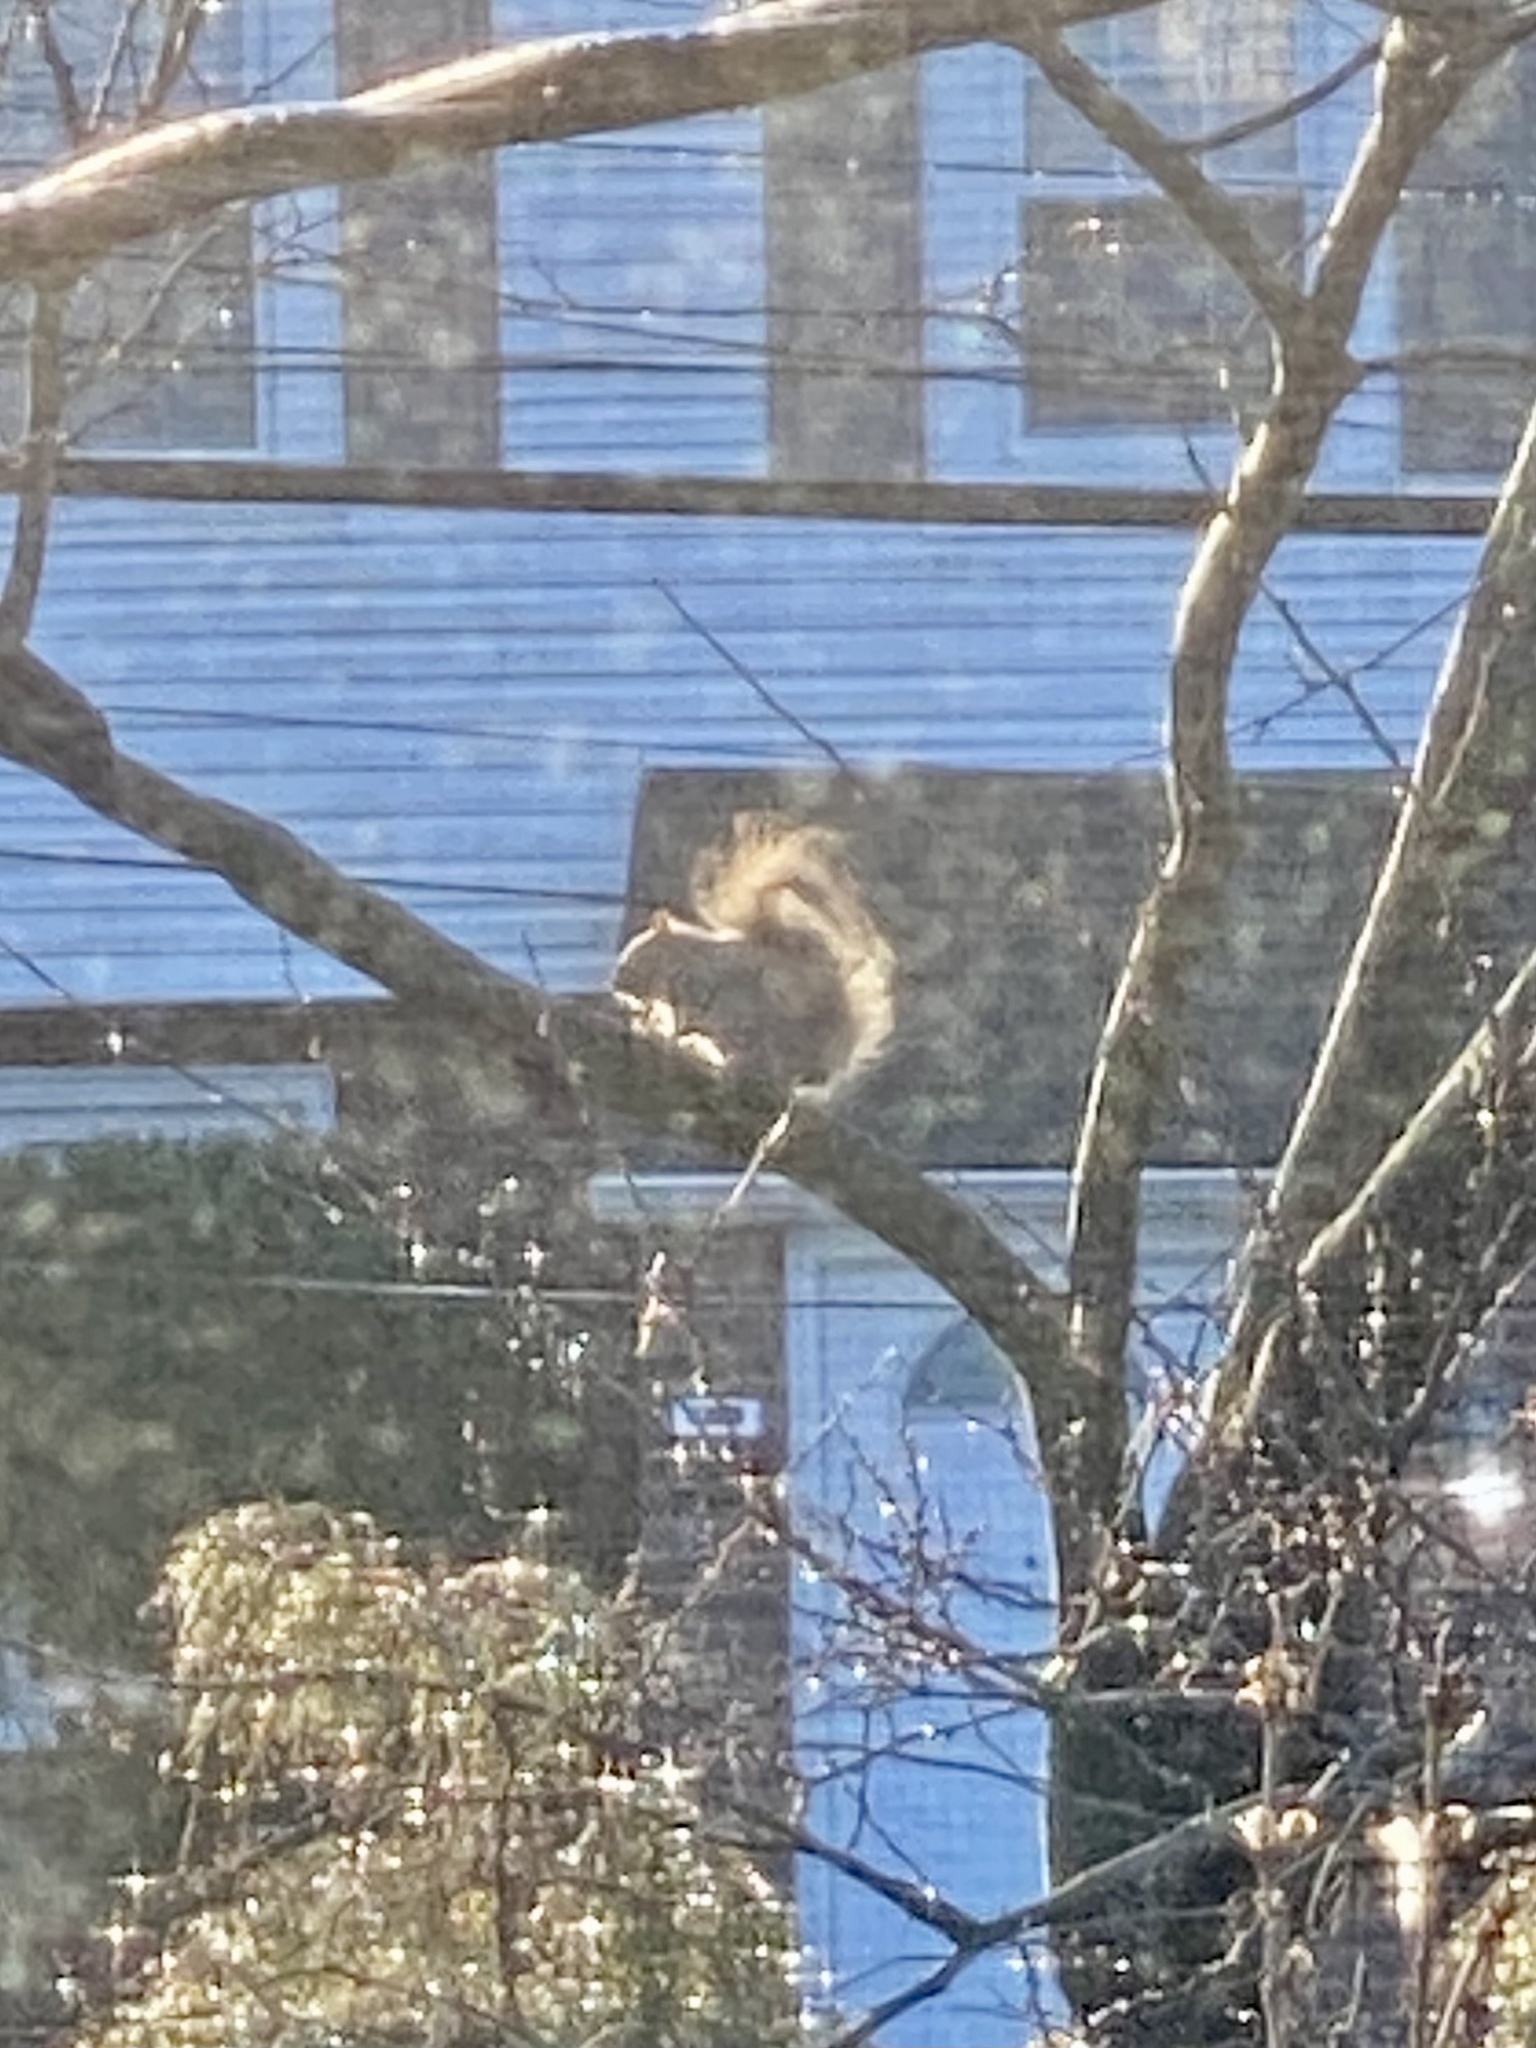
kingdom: Animalia
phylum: Chordata
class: Mammalia
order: Rodentia
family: Sciuridae
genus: Sciurus
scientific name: Sciurus carolinensis
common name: Eastern gray squirrel
